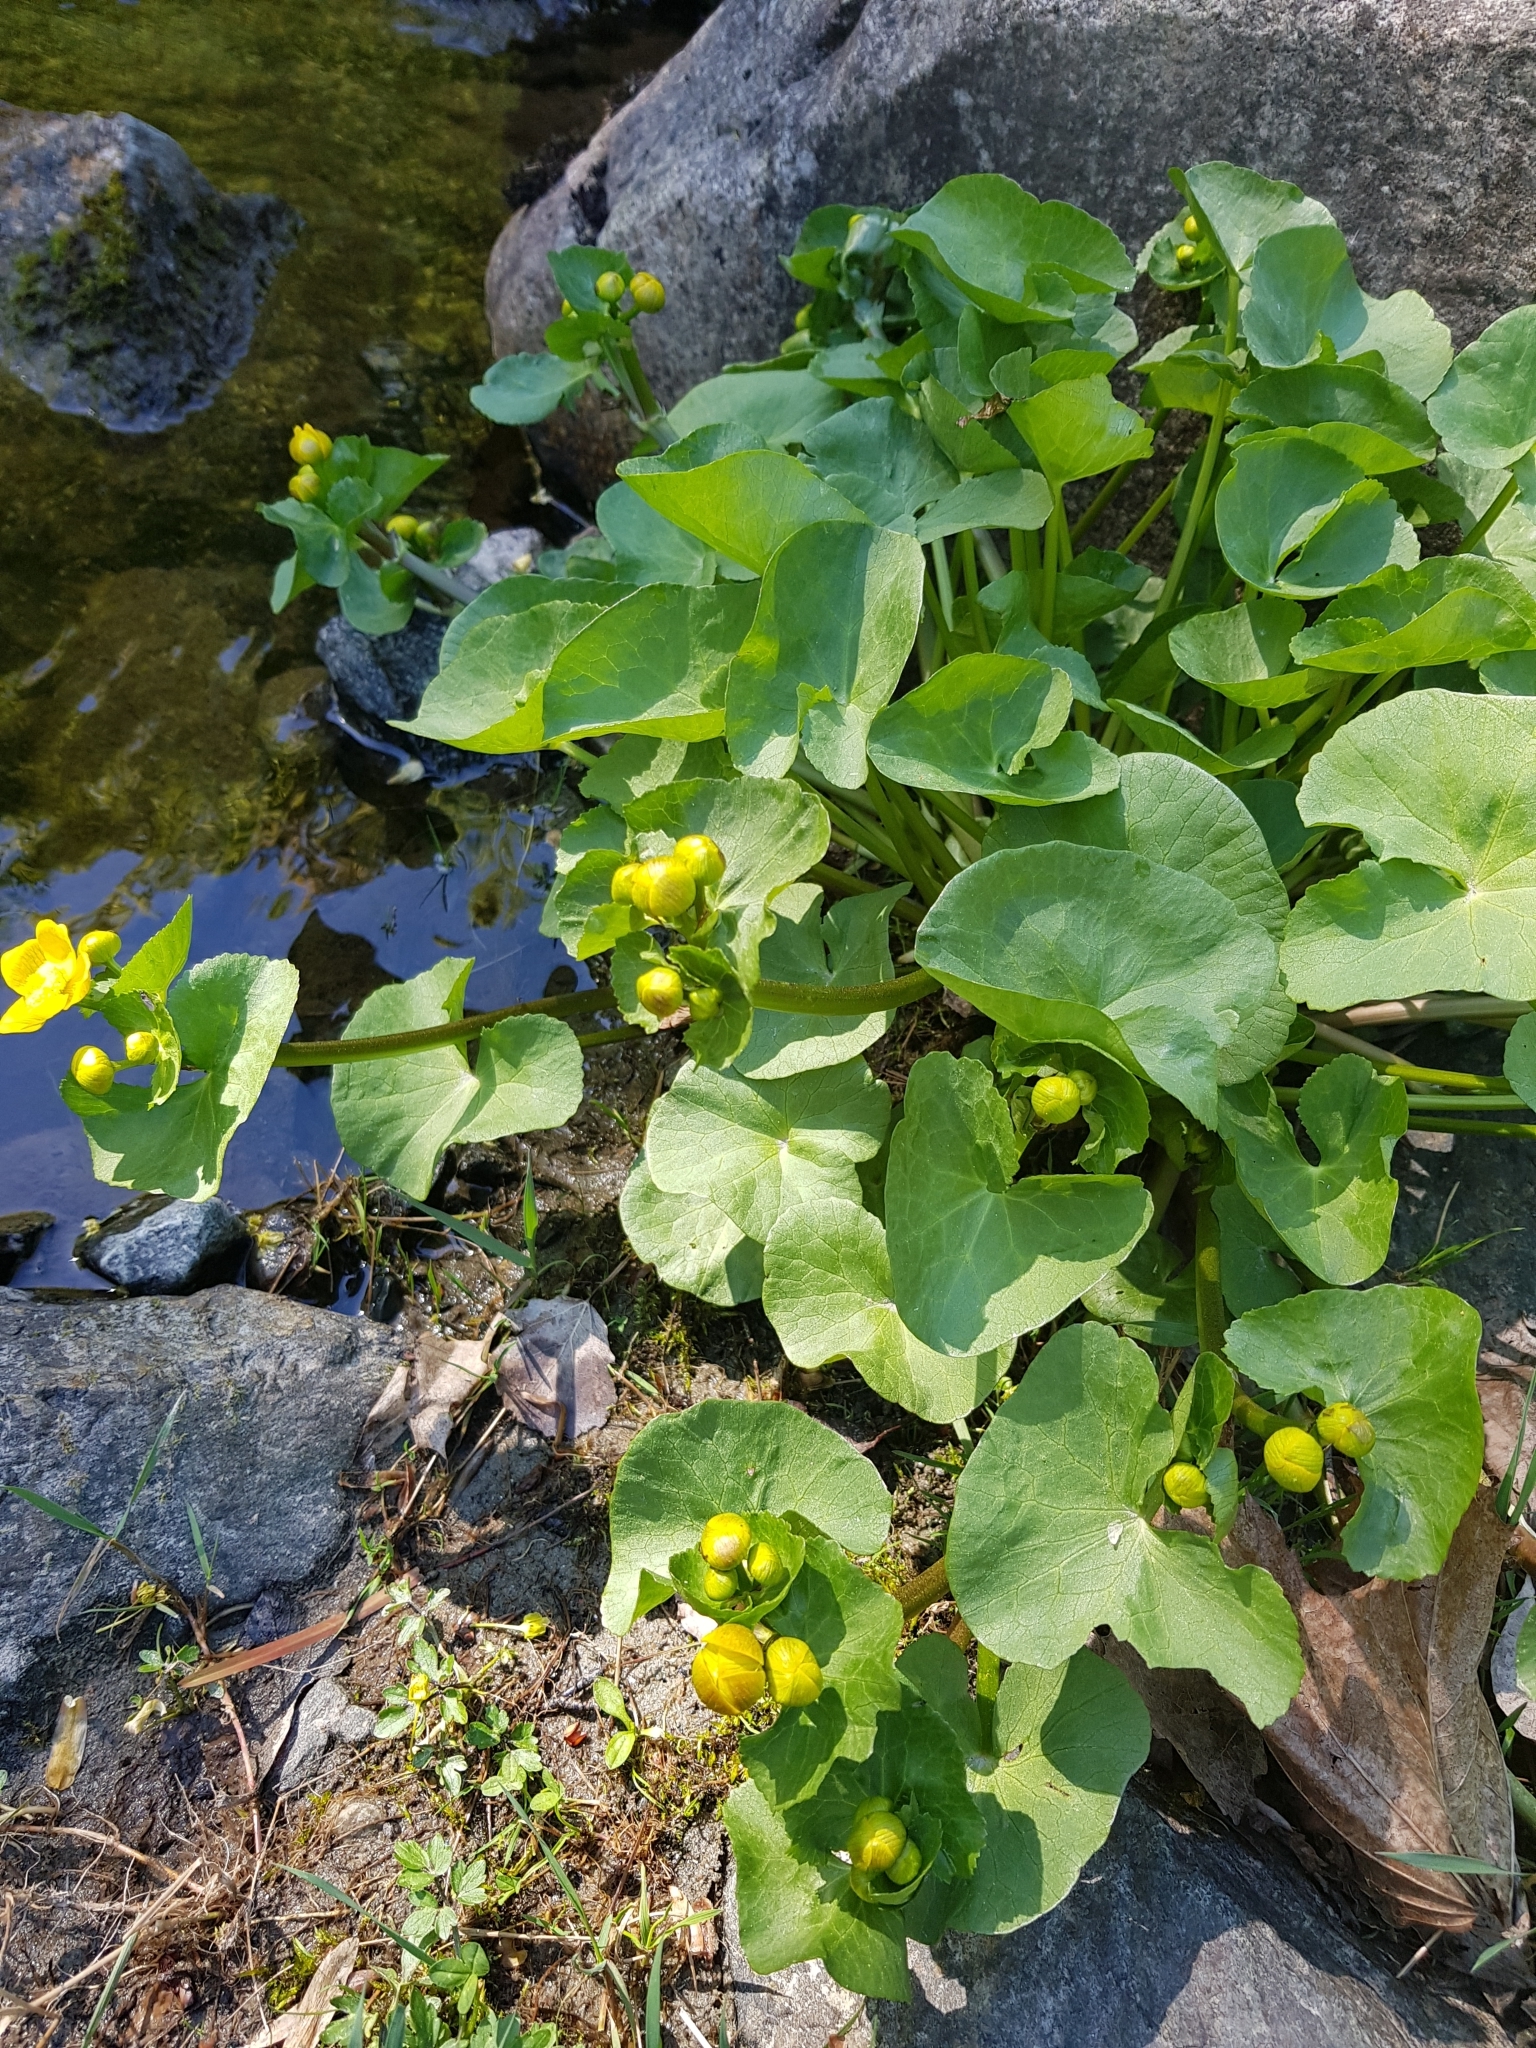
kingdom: Plantae
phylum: Tracheophyta
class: Magnoliopsida
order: Ranunculales
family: Ranunculaceae
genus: Caltha
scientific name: Caltha palustris
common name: Marsh marigold
